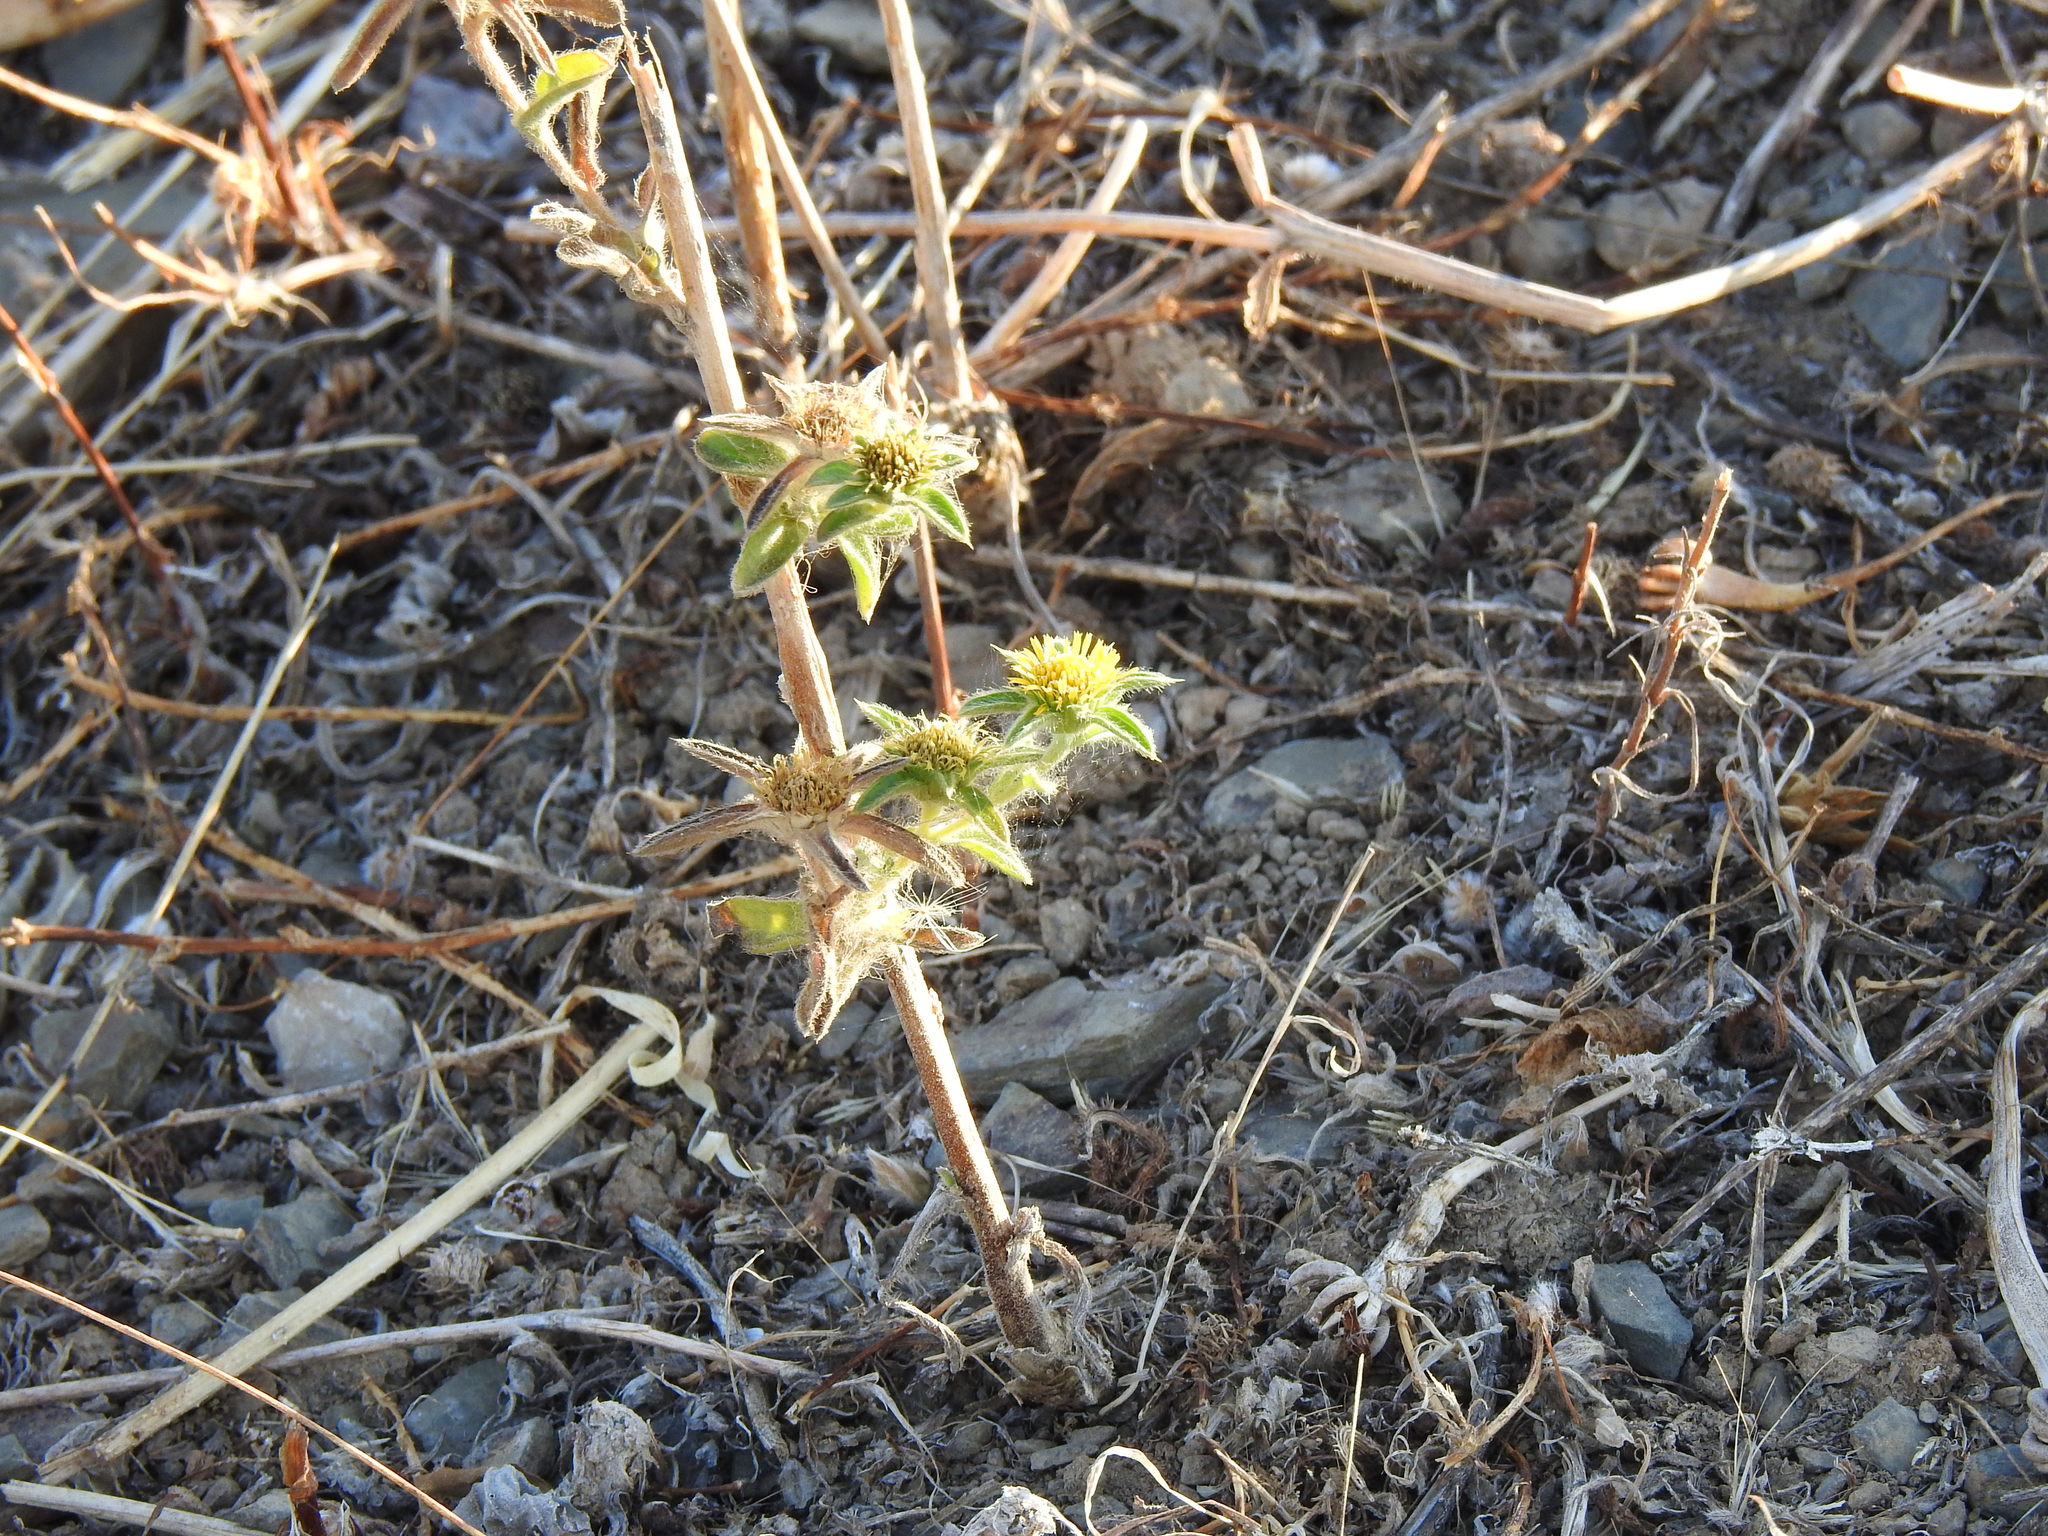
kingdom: Plantae
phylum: Tracheophyta
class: Magnoliopsida
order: Asterales
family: Asteraceae
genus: Pallenis
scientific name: Pallenis spinosa
